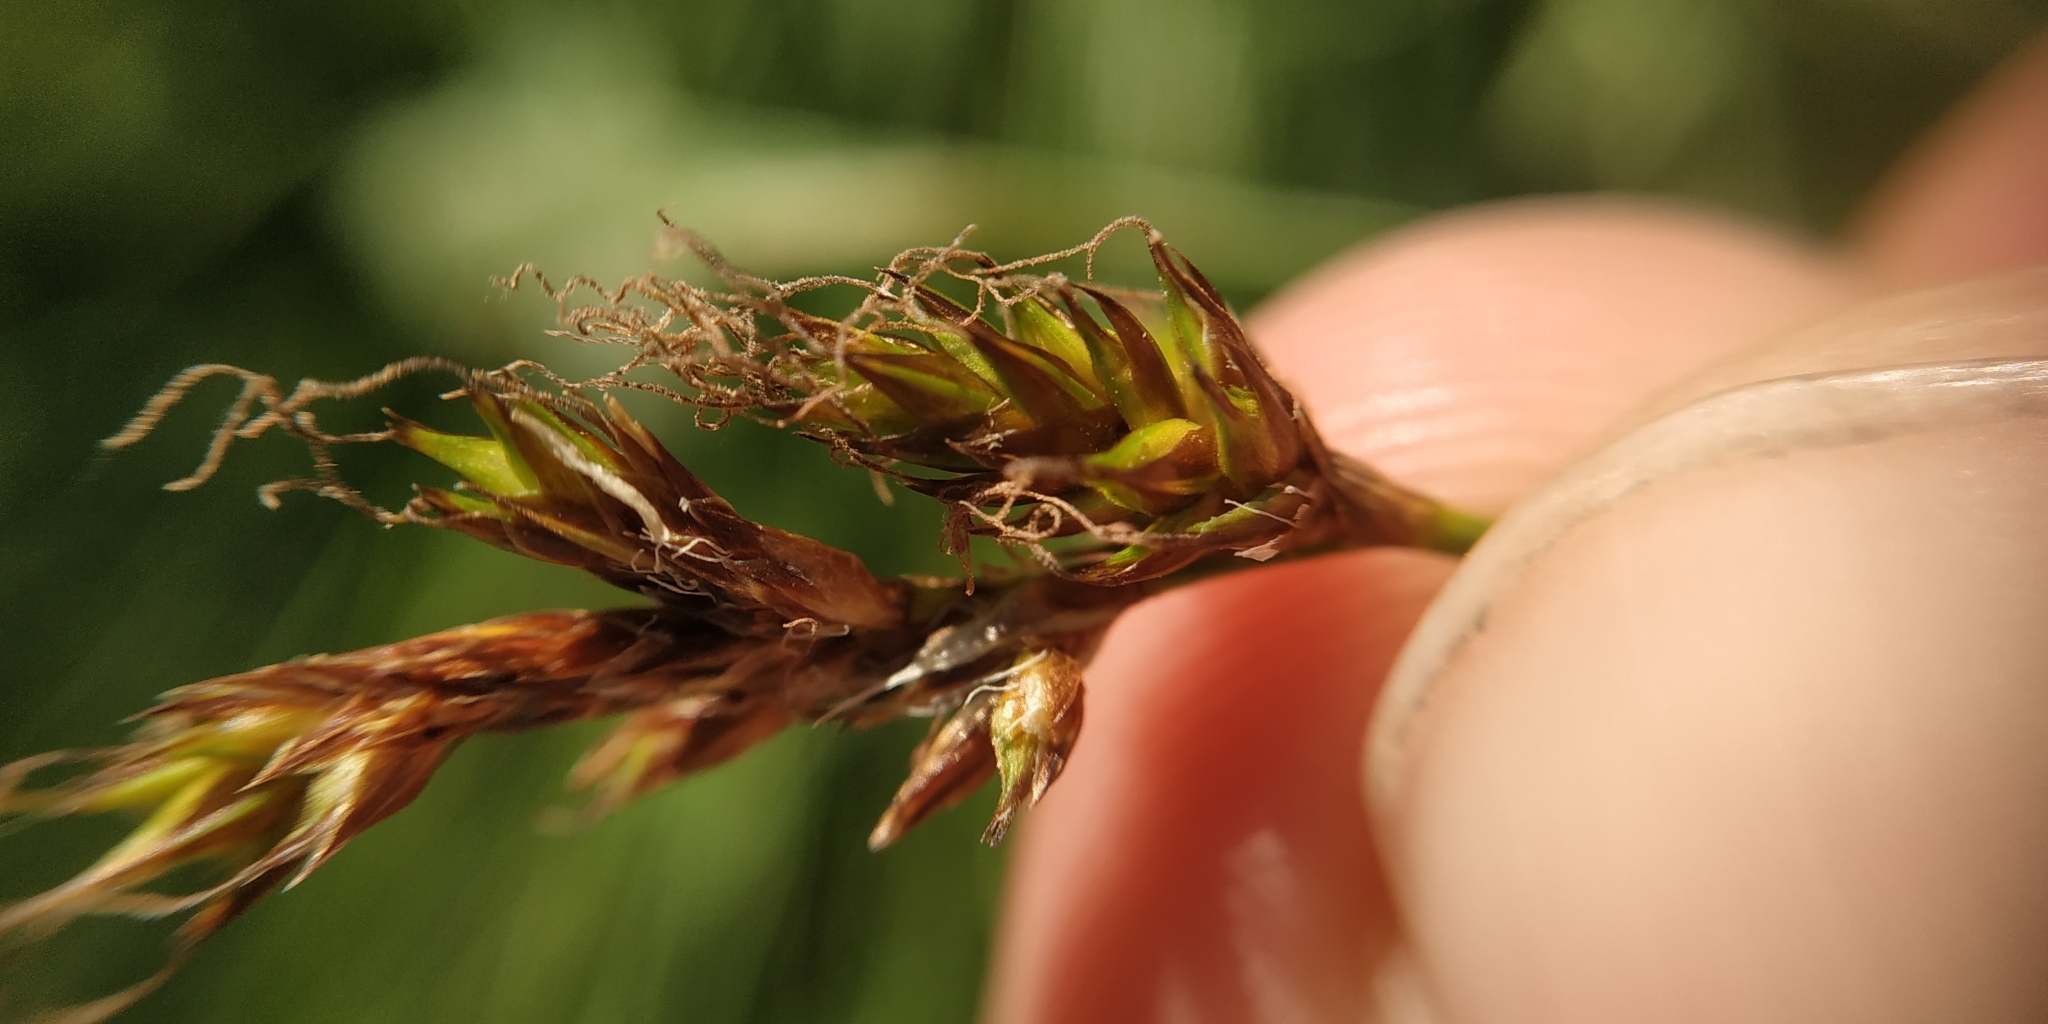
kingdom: Plantae
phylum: Tracheophyta
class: Liliopsida
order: Poales
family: Cyperaceae
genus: Carex
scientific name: Carex praecox
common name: Early sedge
